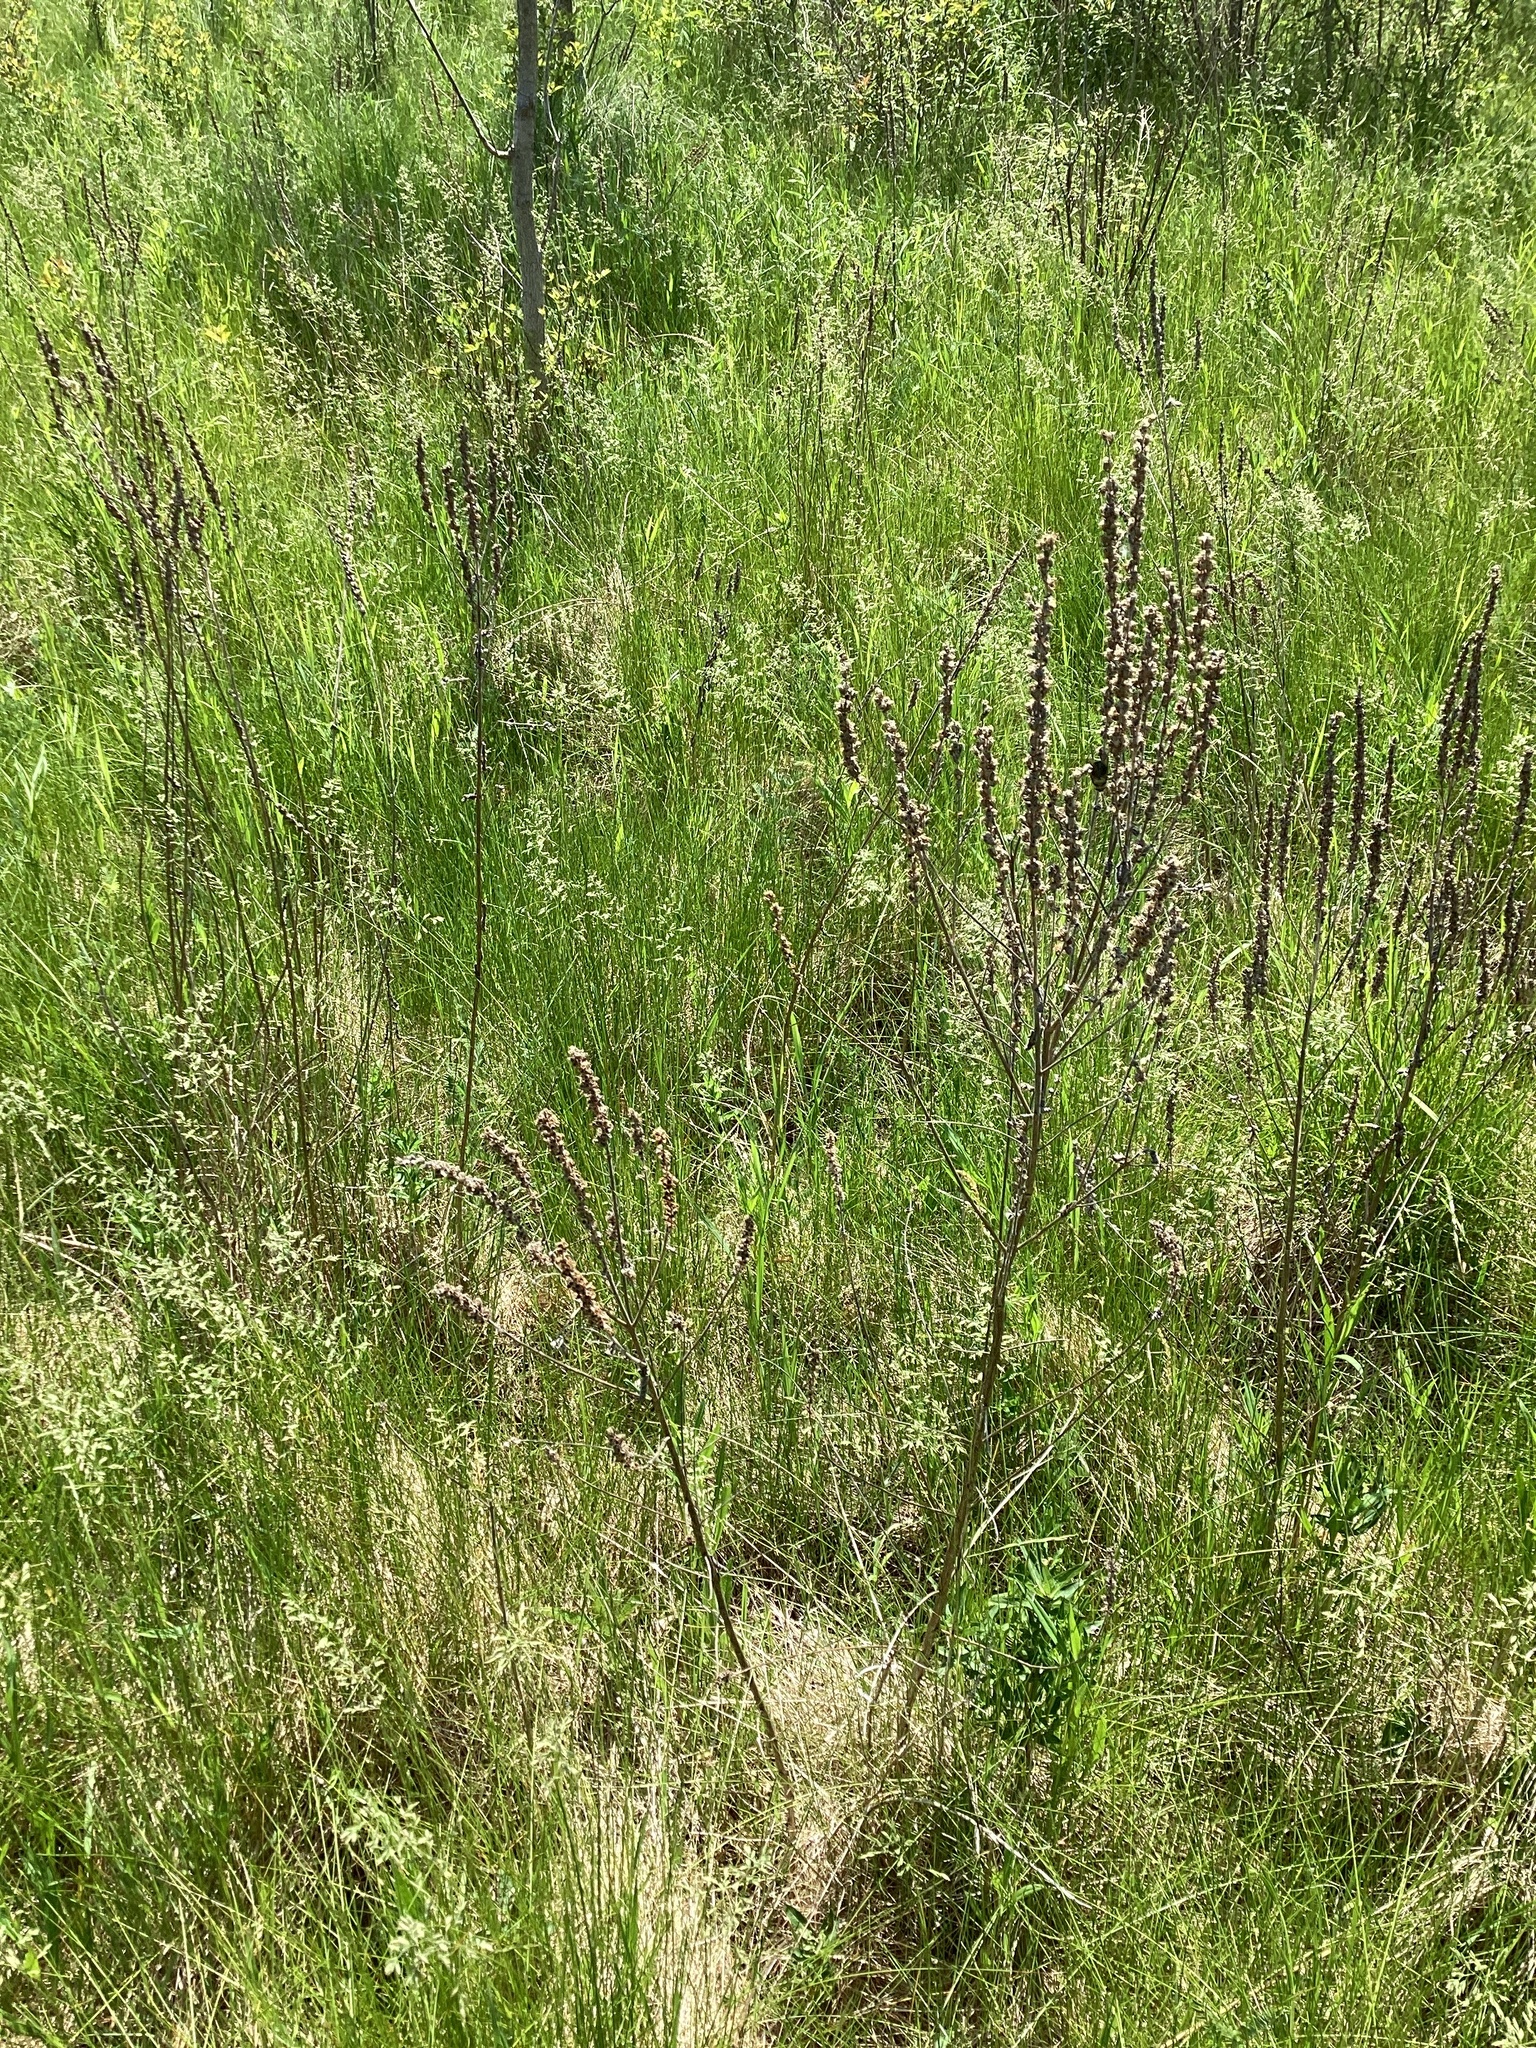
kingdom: Plantae
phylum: Tracheophyta
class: Magnoliopsida
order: Myrtales
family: Lythraceae
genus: Lythrum
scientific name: Lythrum salicaria
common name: Purple loosestrife
